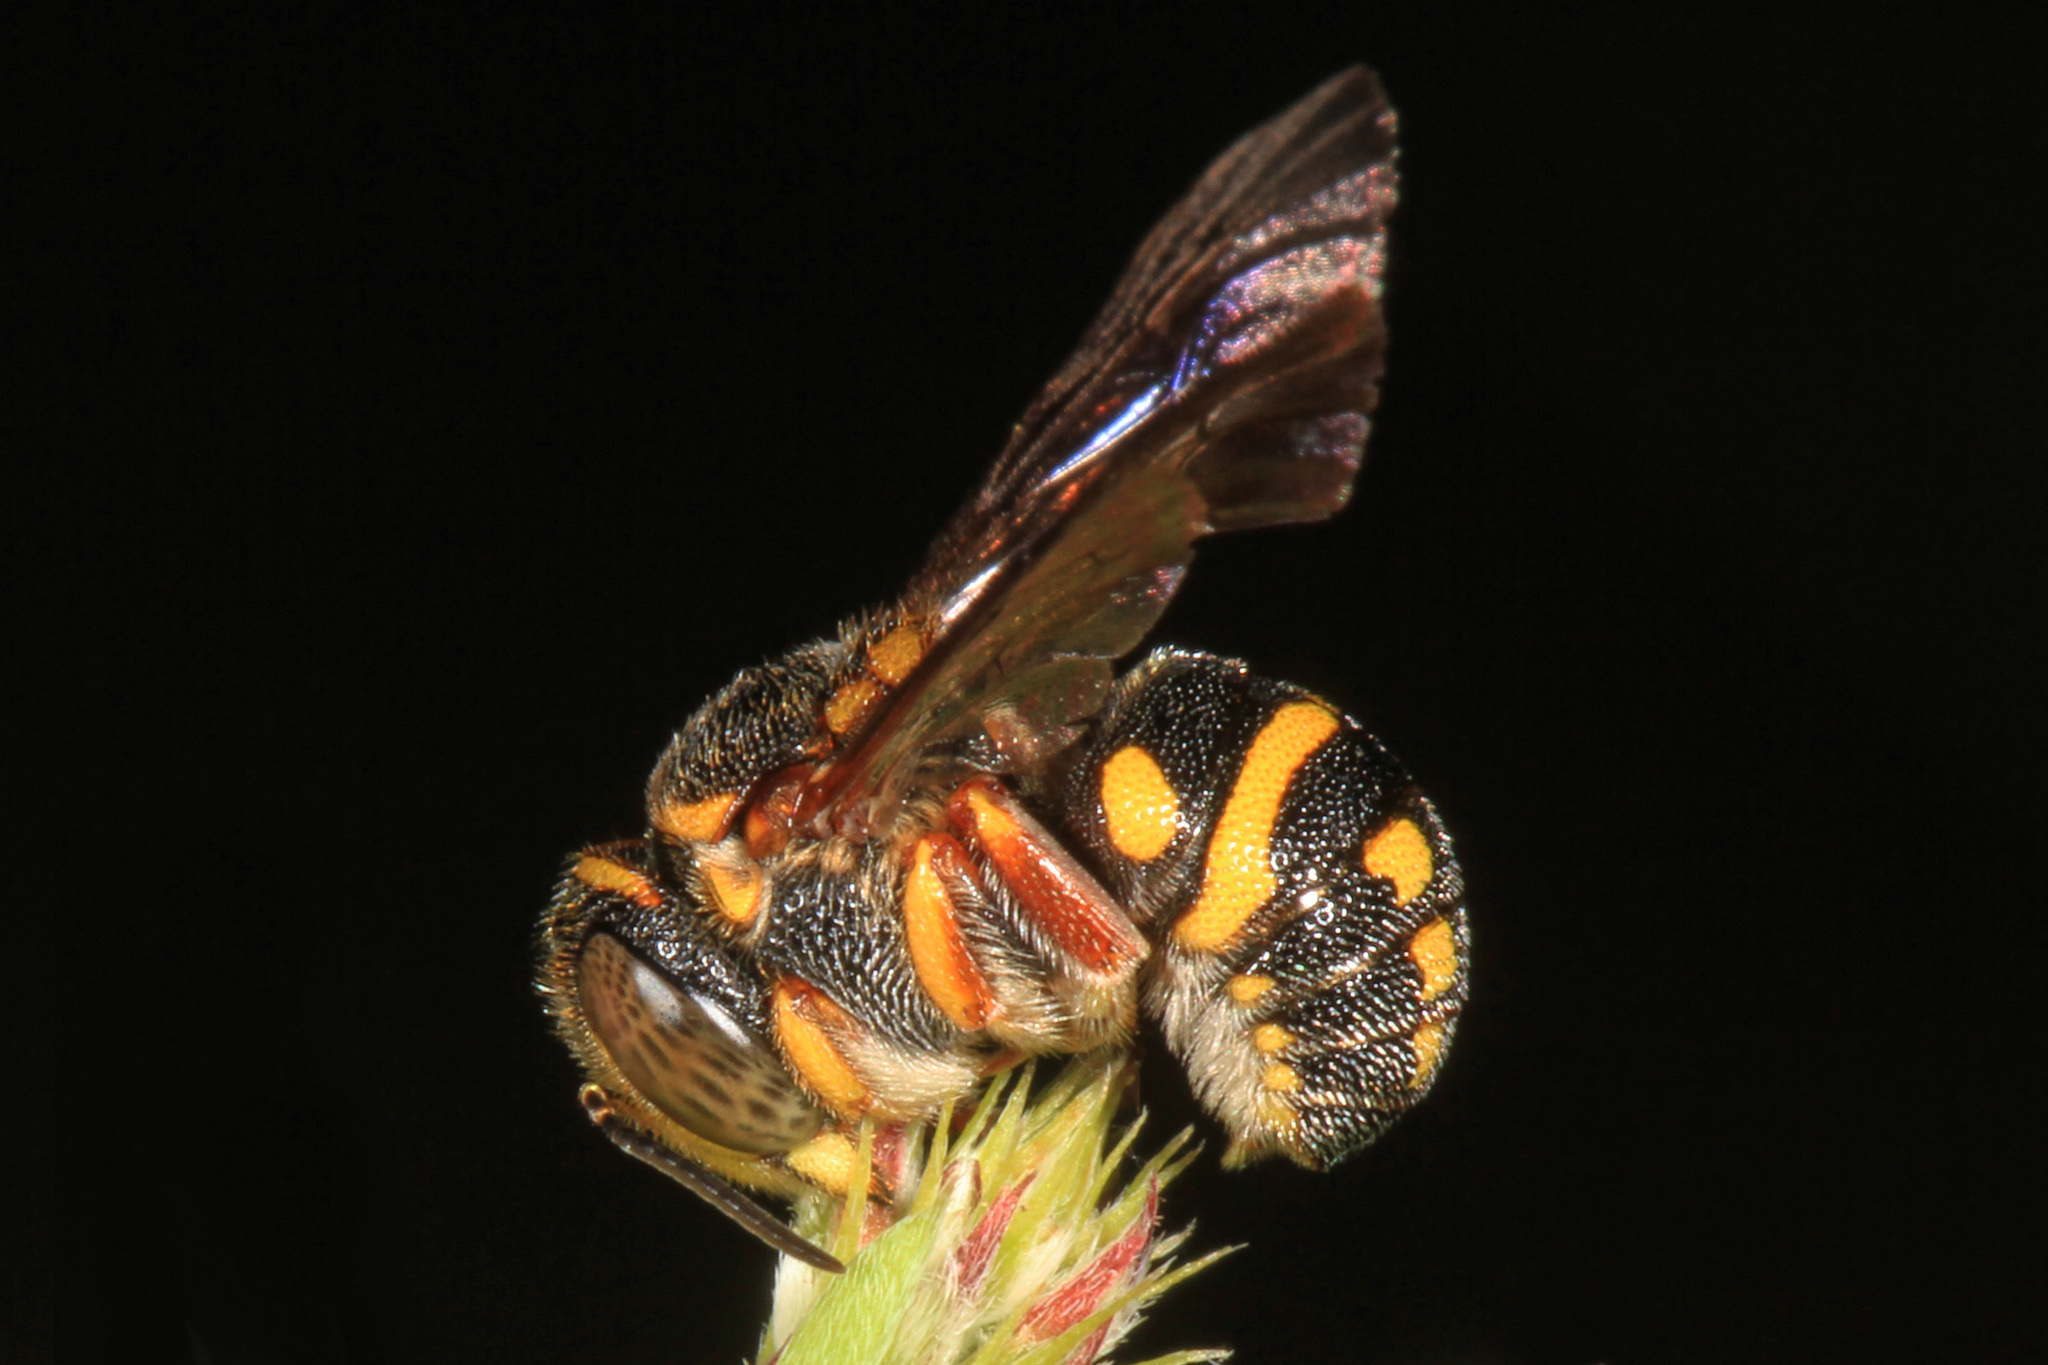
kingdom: Animalia
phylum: Arthropoda
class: Insecta
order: Hymenoptera
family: Megachilidae
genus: Anthidiellum
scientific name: Anthidiellum notatum
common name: Northern rotund-resin bee
